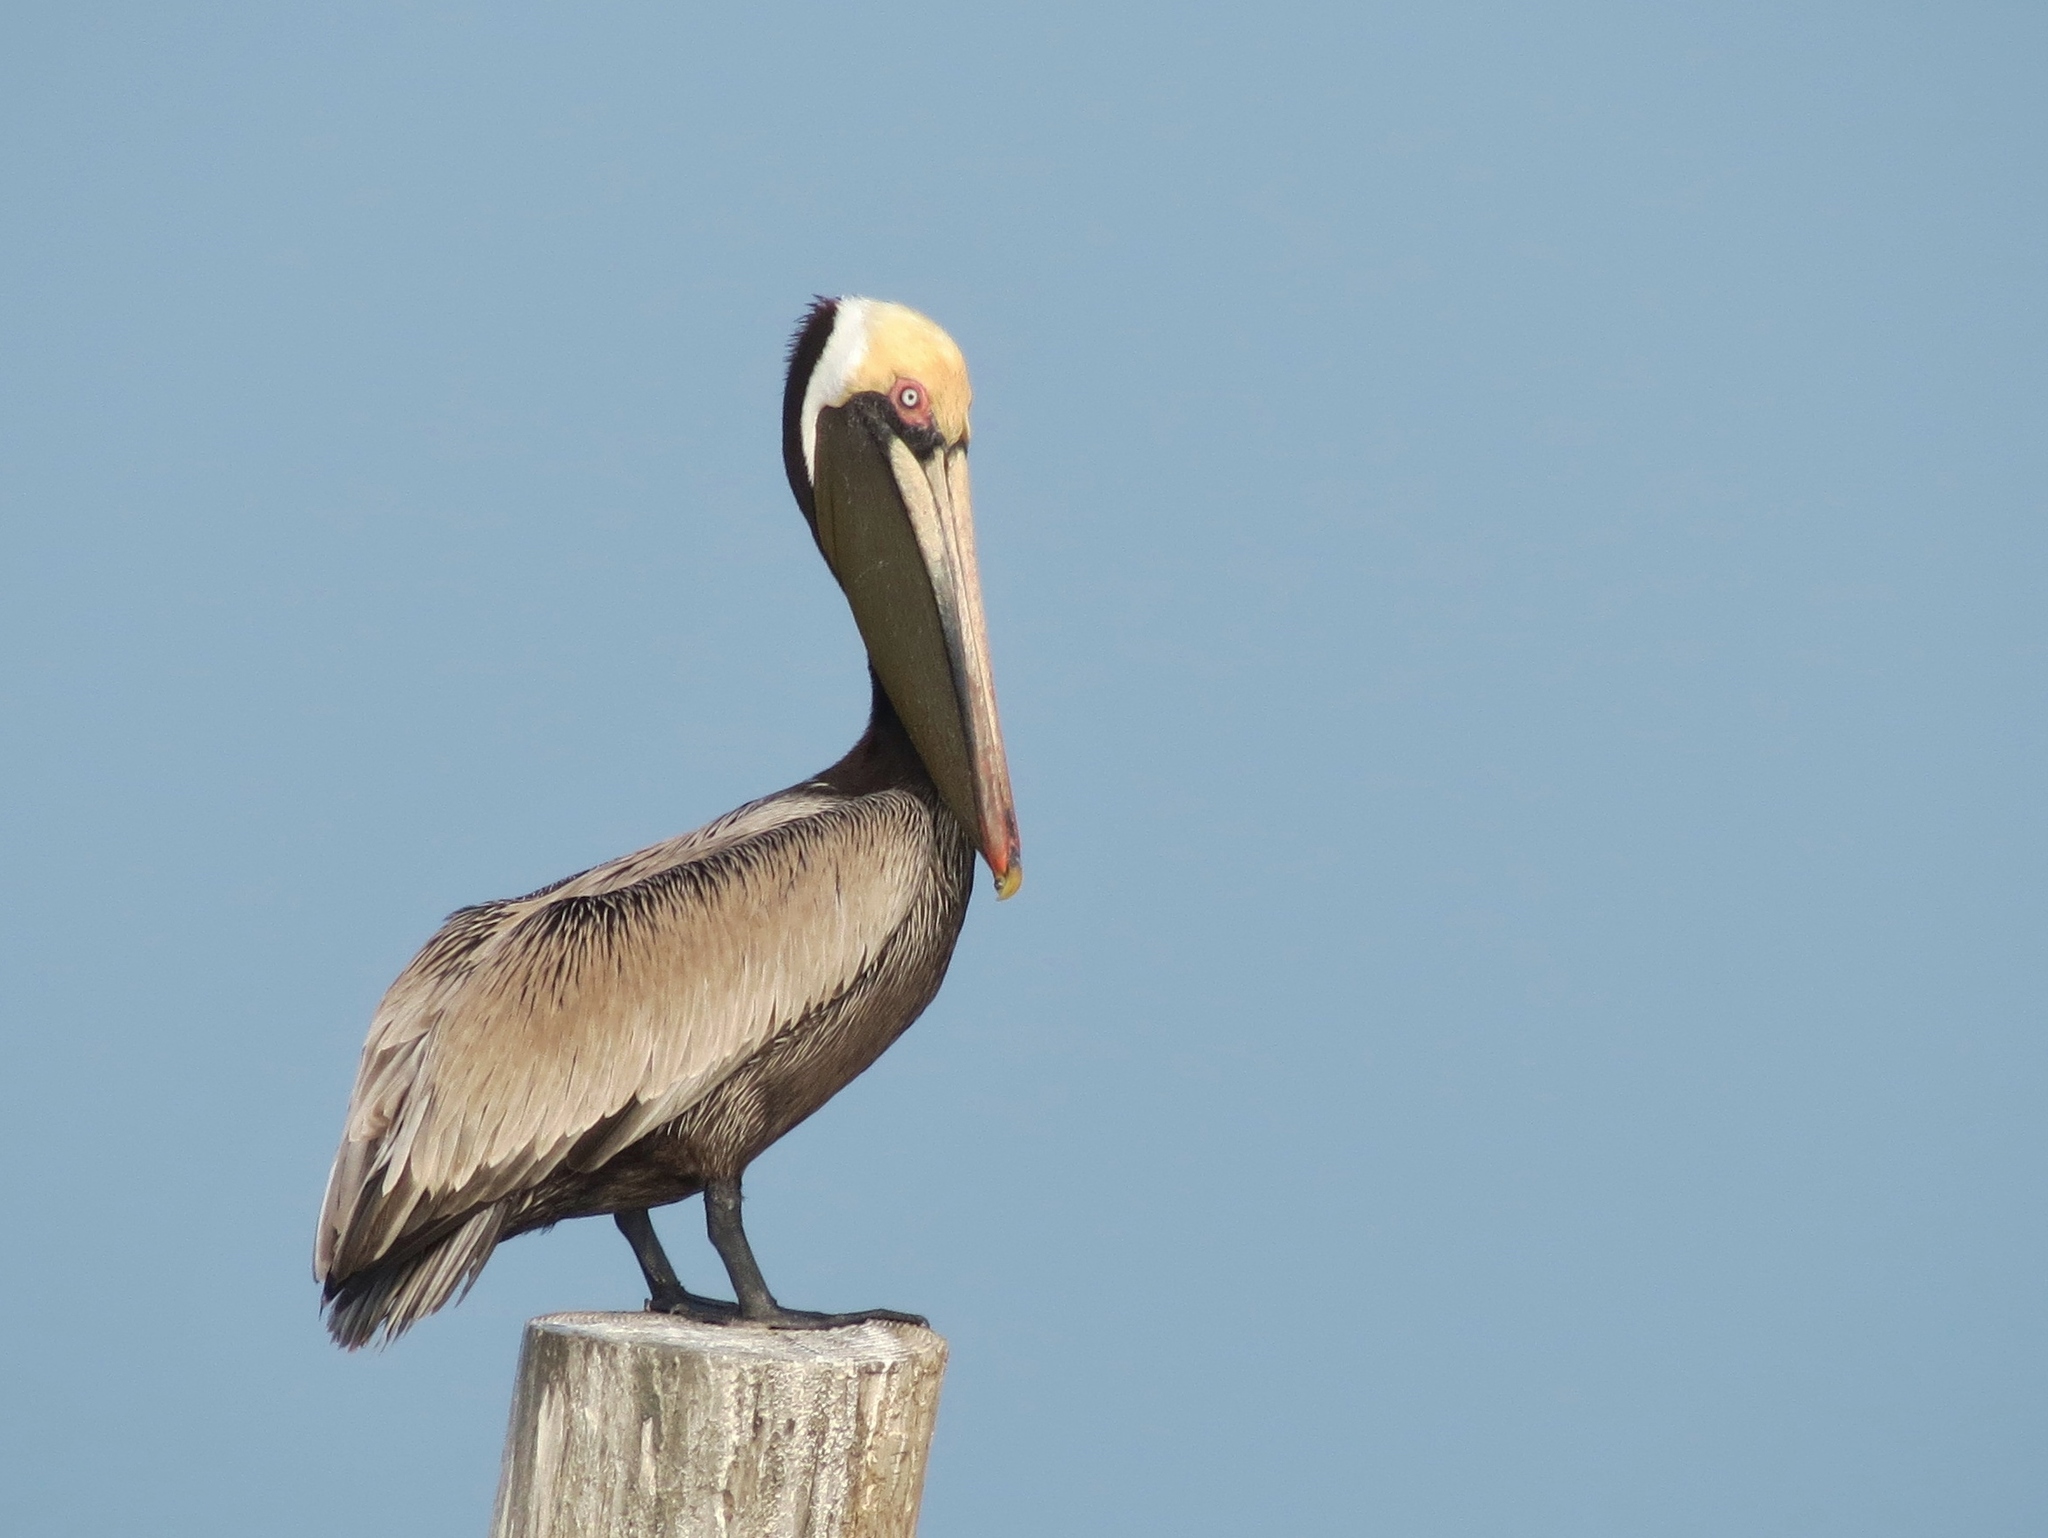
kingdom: Animalia
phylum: Chordata
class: Aves
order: Pelecaniformes
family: Pelecanidae
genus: Pelecanus
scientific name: Pelecanus occidentalis
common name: Brown pelican
